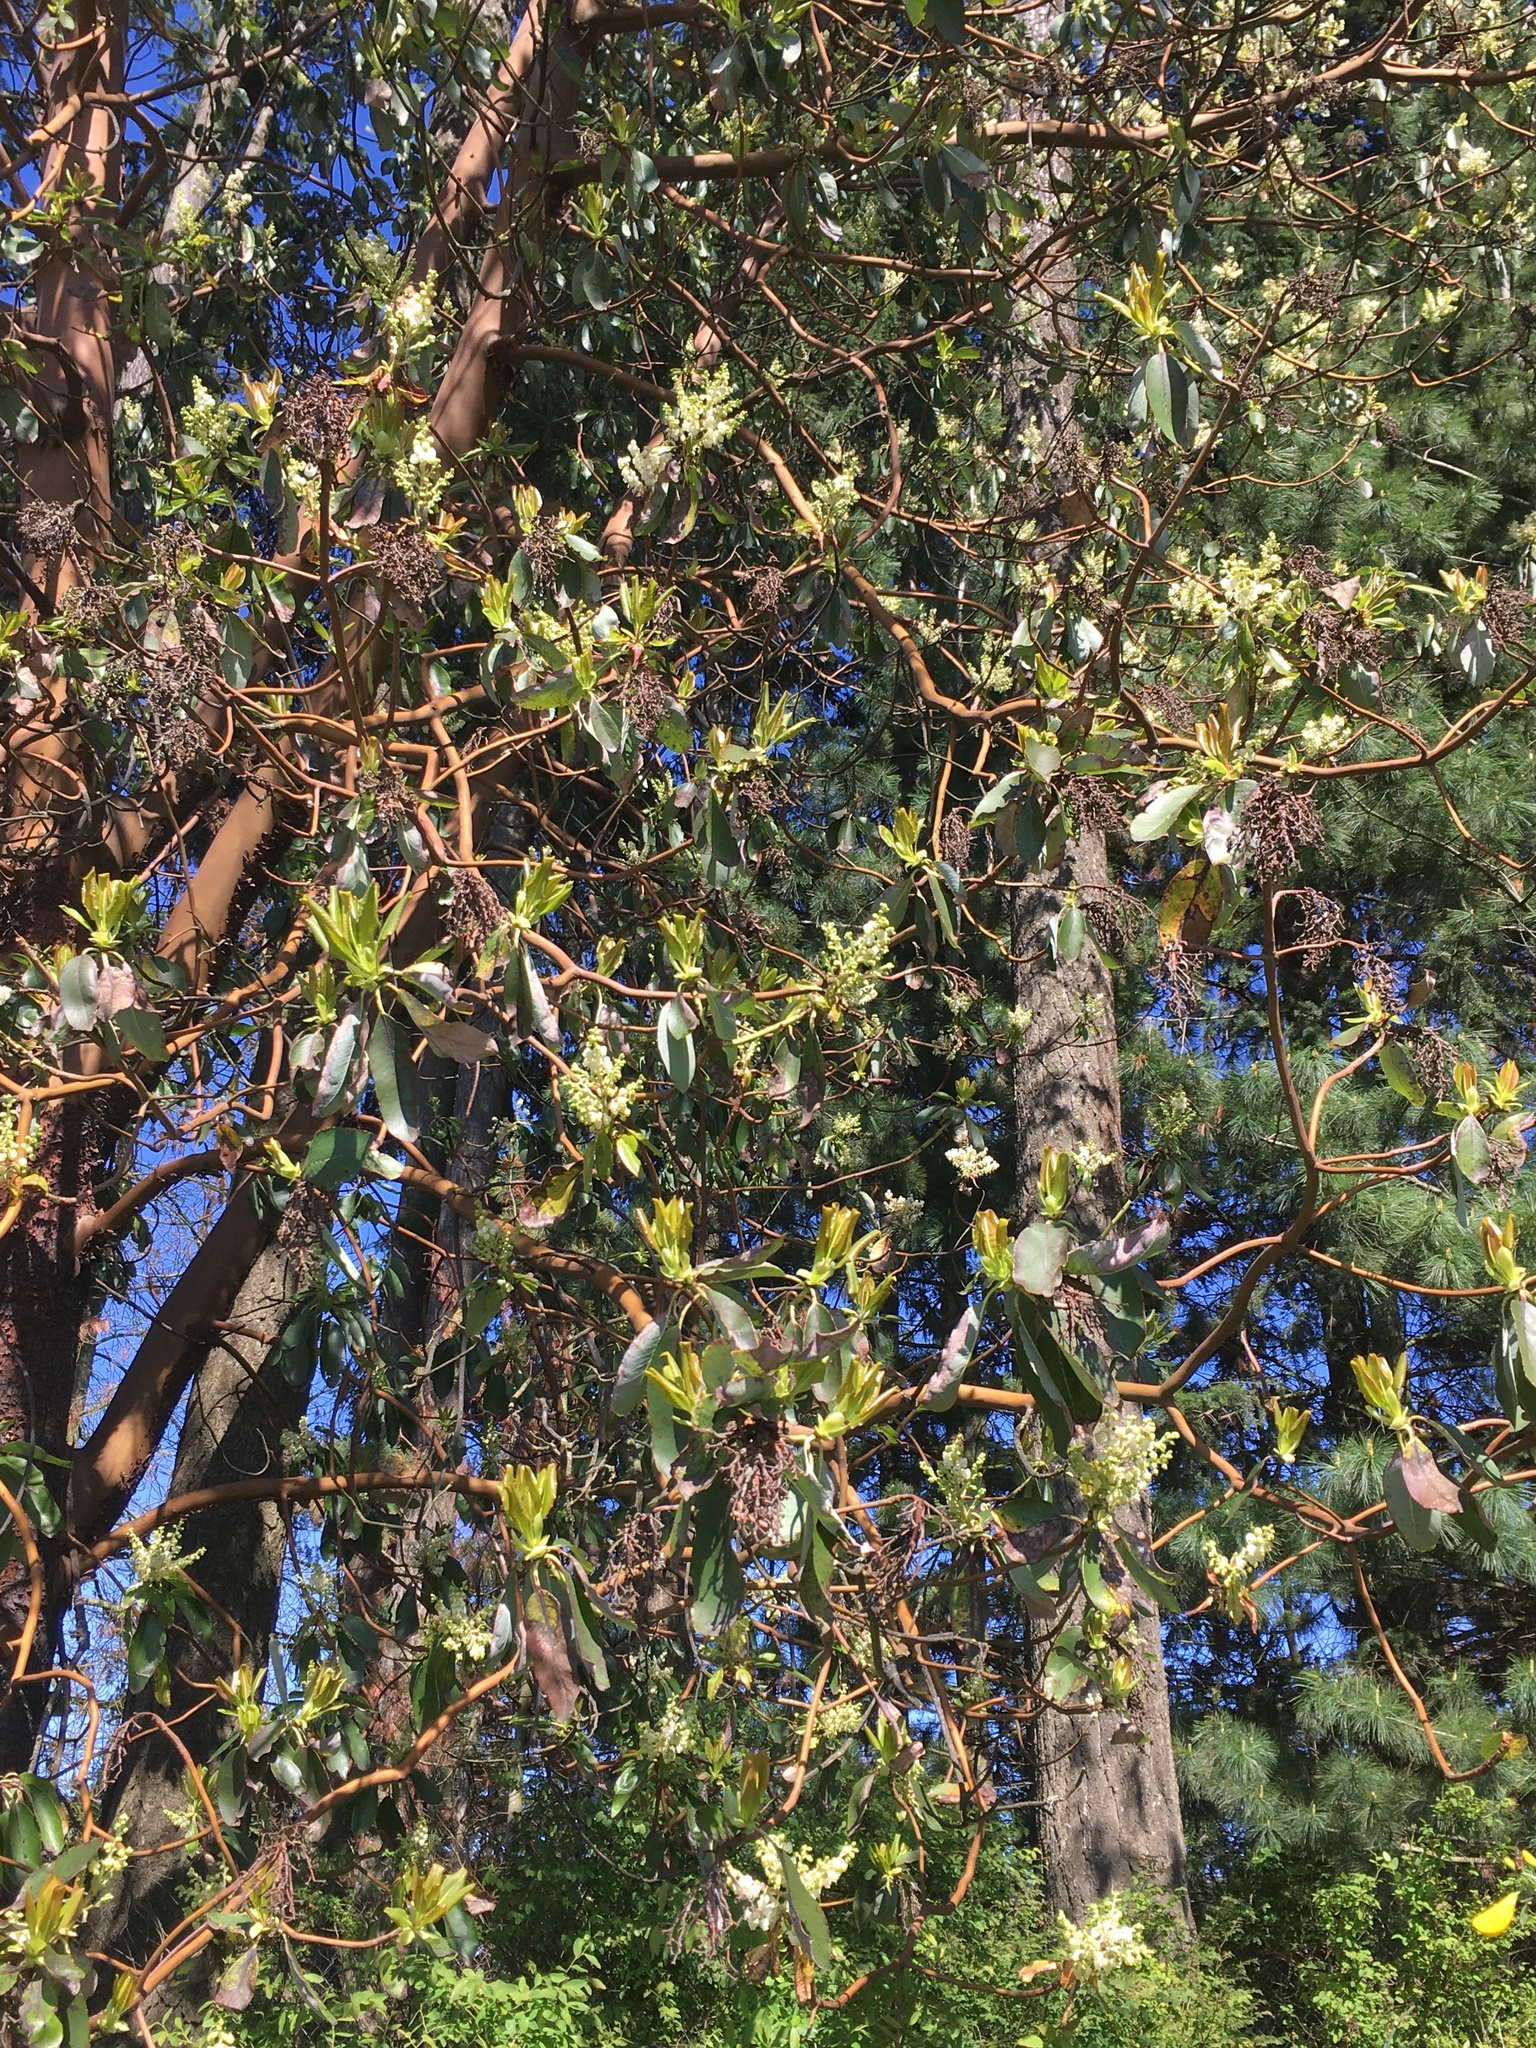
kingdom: Plantae
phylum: Tracheophyta
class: Magnoliopsida
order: Ericales
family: Ericaceae
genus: Arbutus
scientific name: Arbutus menziesii
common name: Pacific madrone
